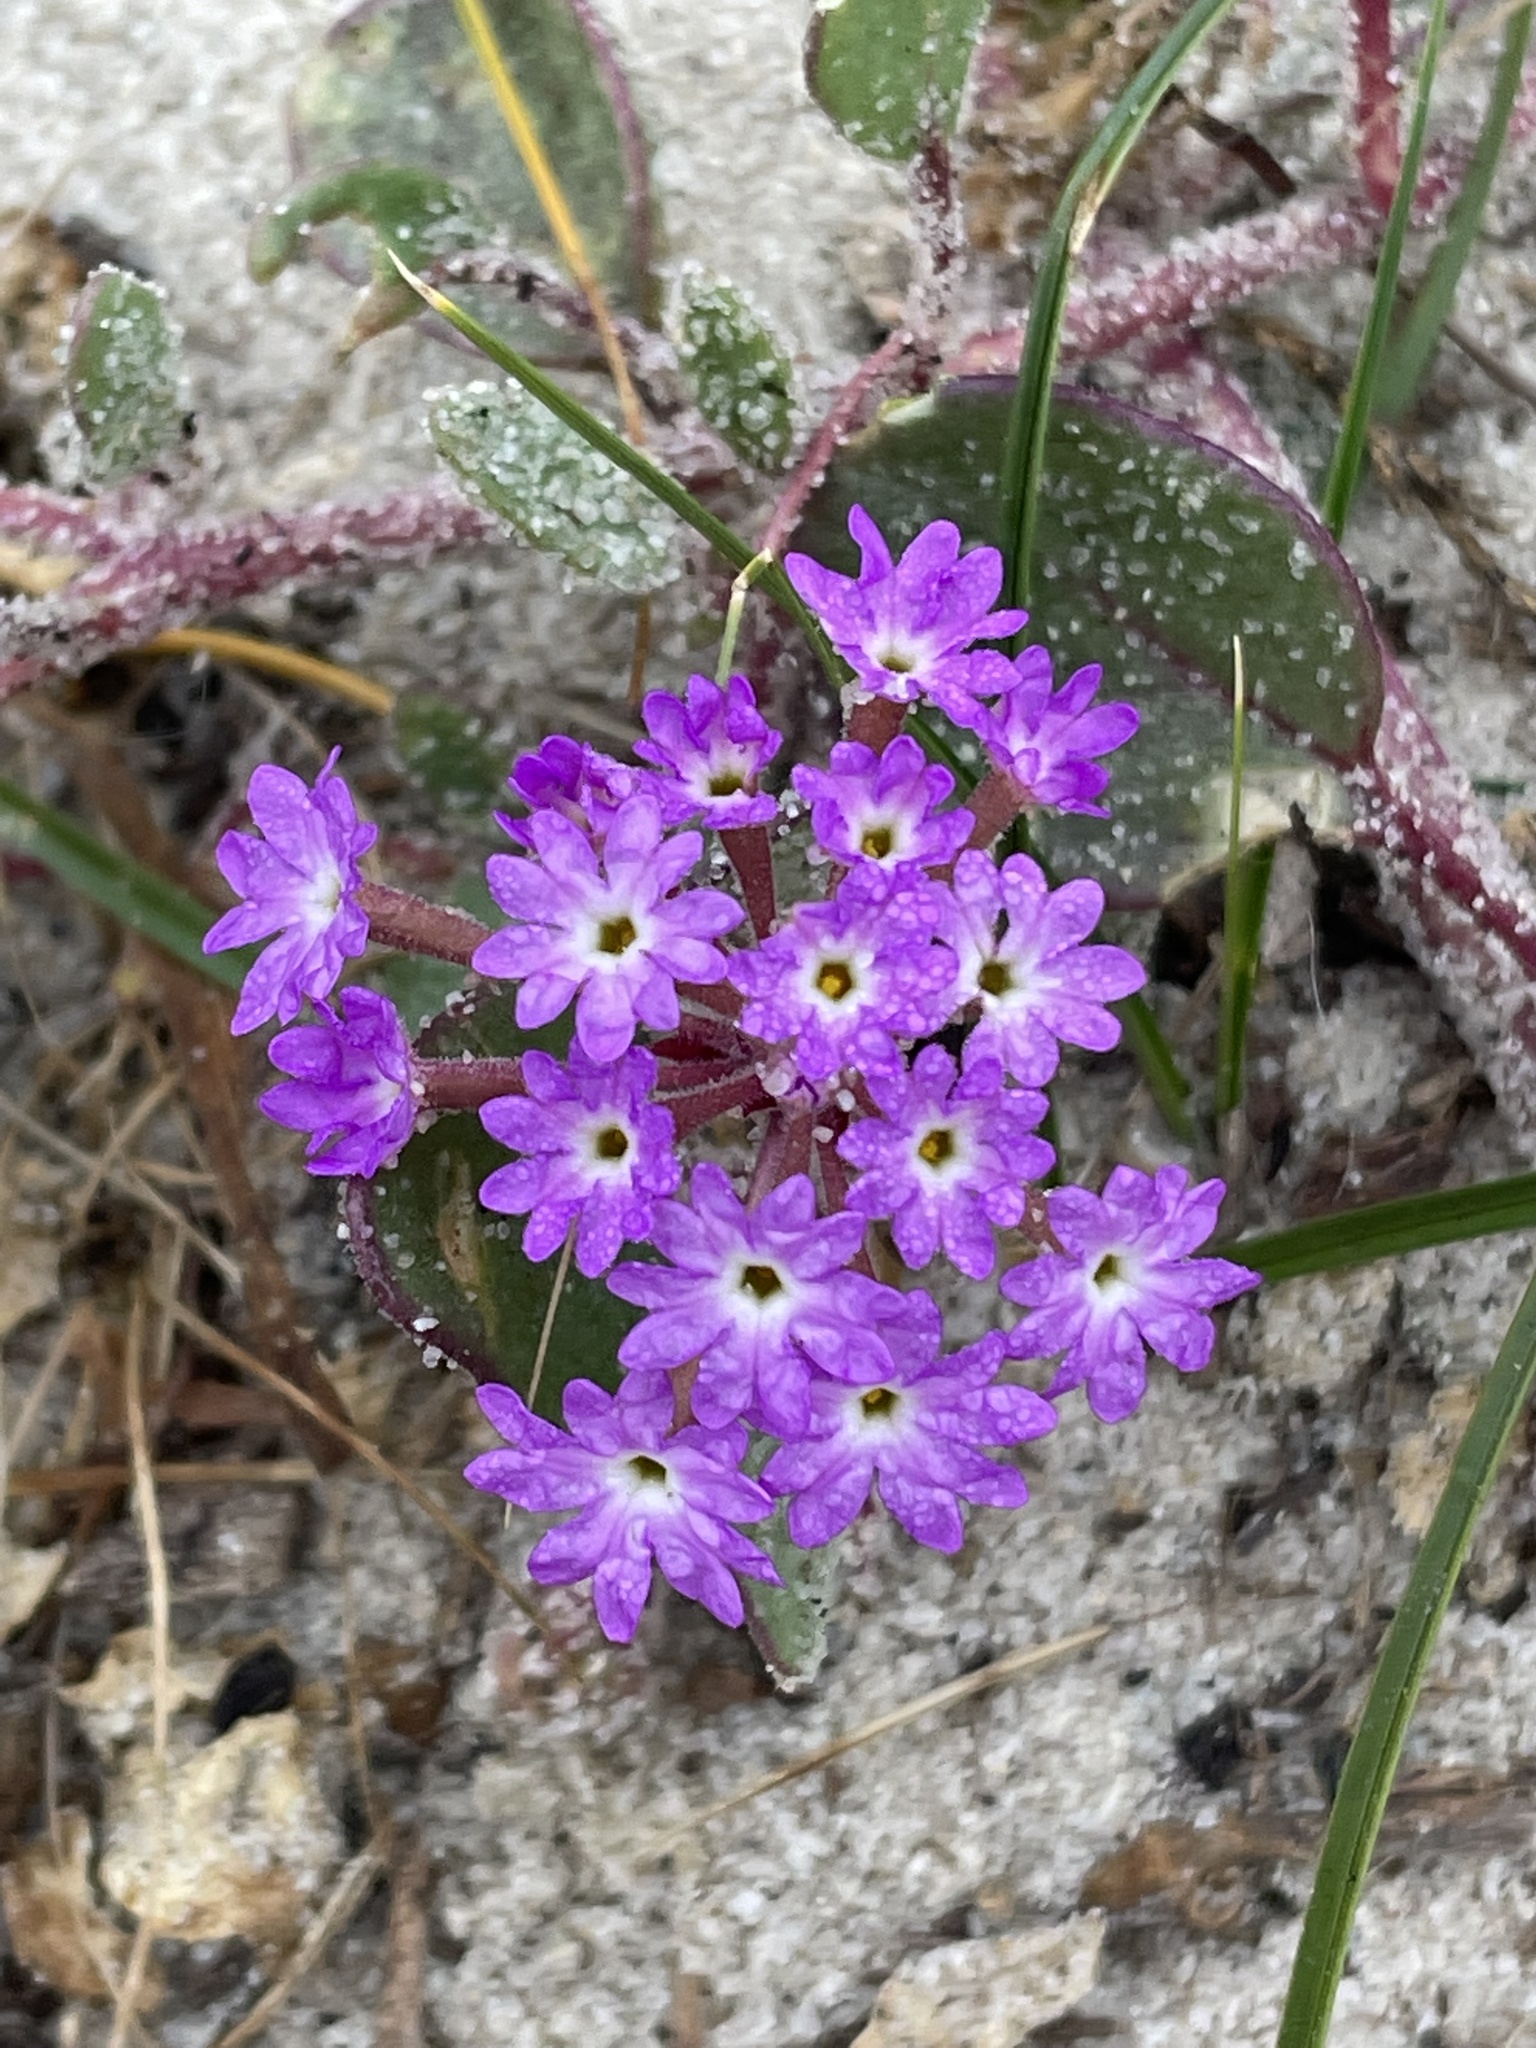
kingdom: Plantae
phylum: Tracheophyta
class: Magnoliopsida
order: Caryophyllales
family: Nyctaginaceae
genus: Abronia
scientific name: Abronia umbellata
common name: Sand-verbena
